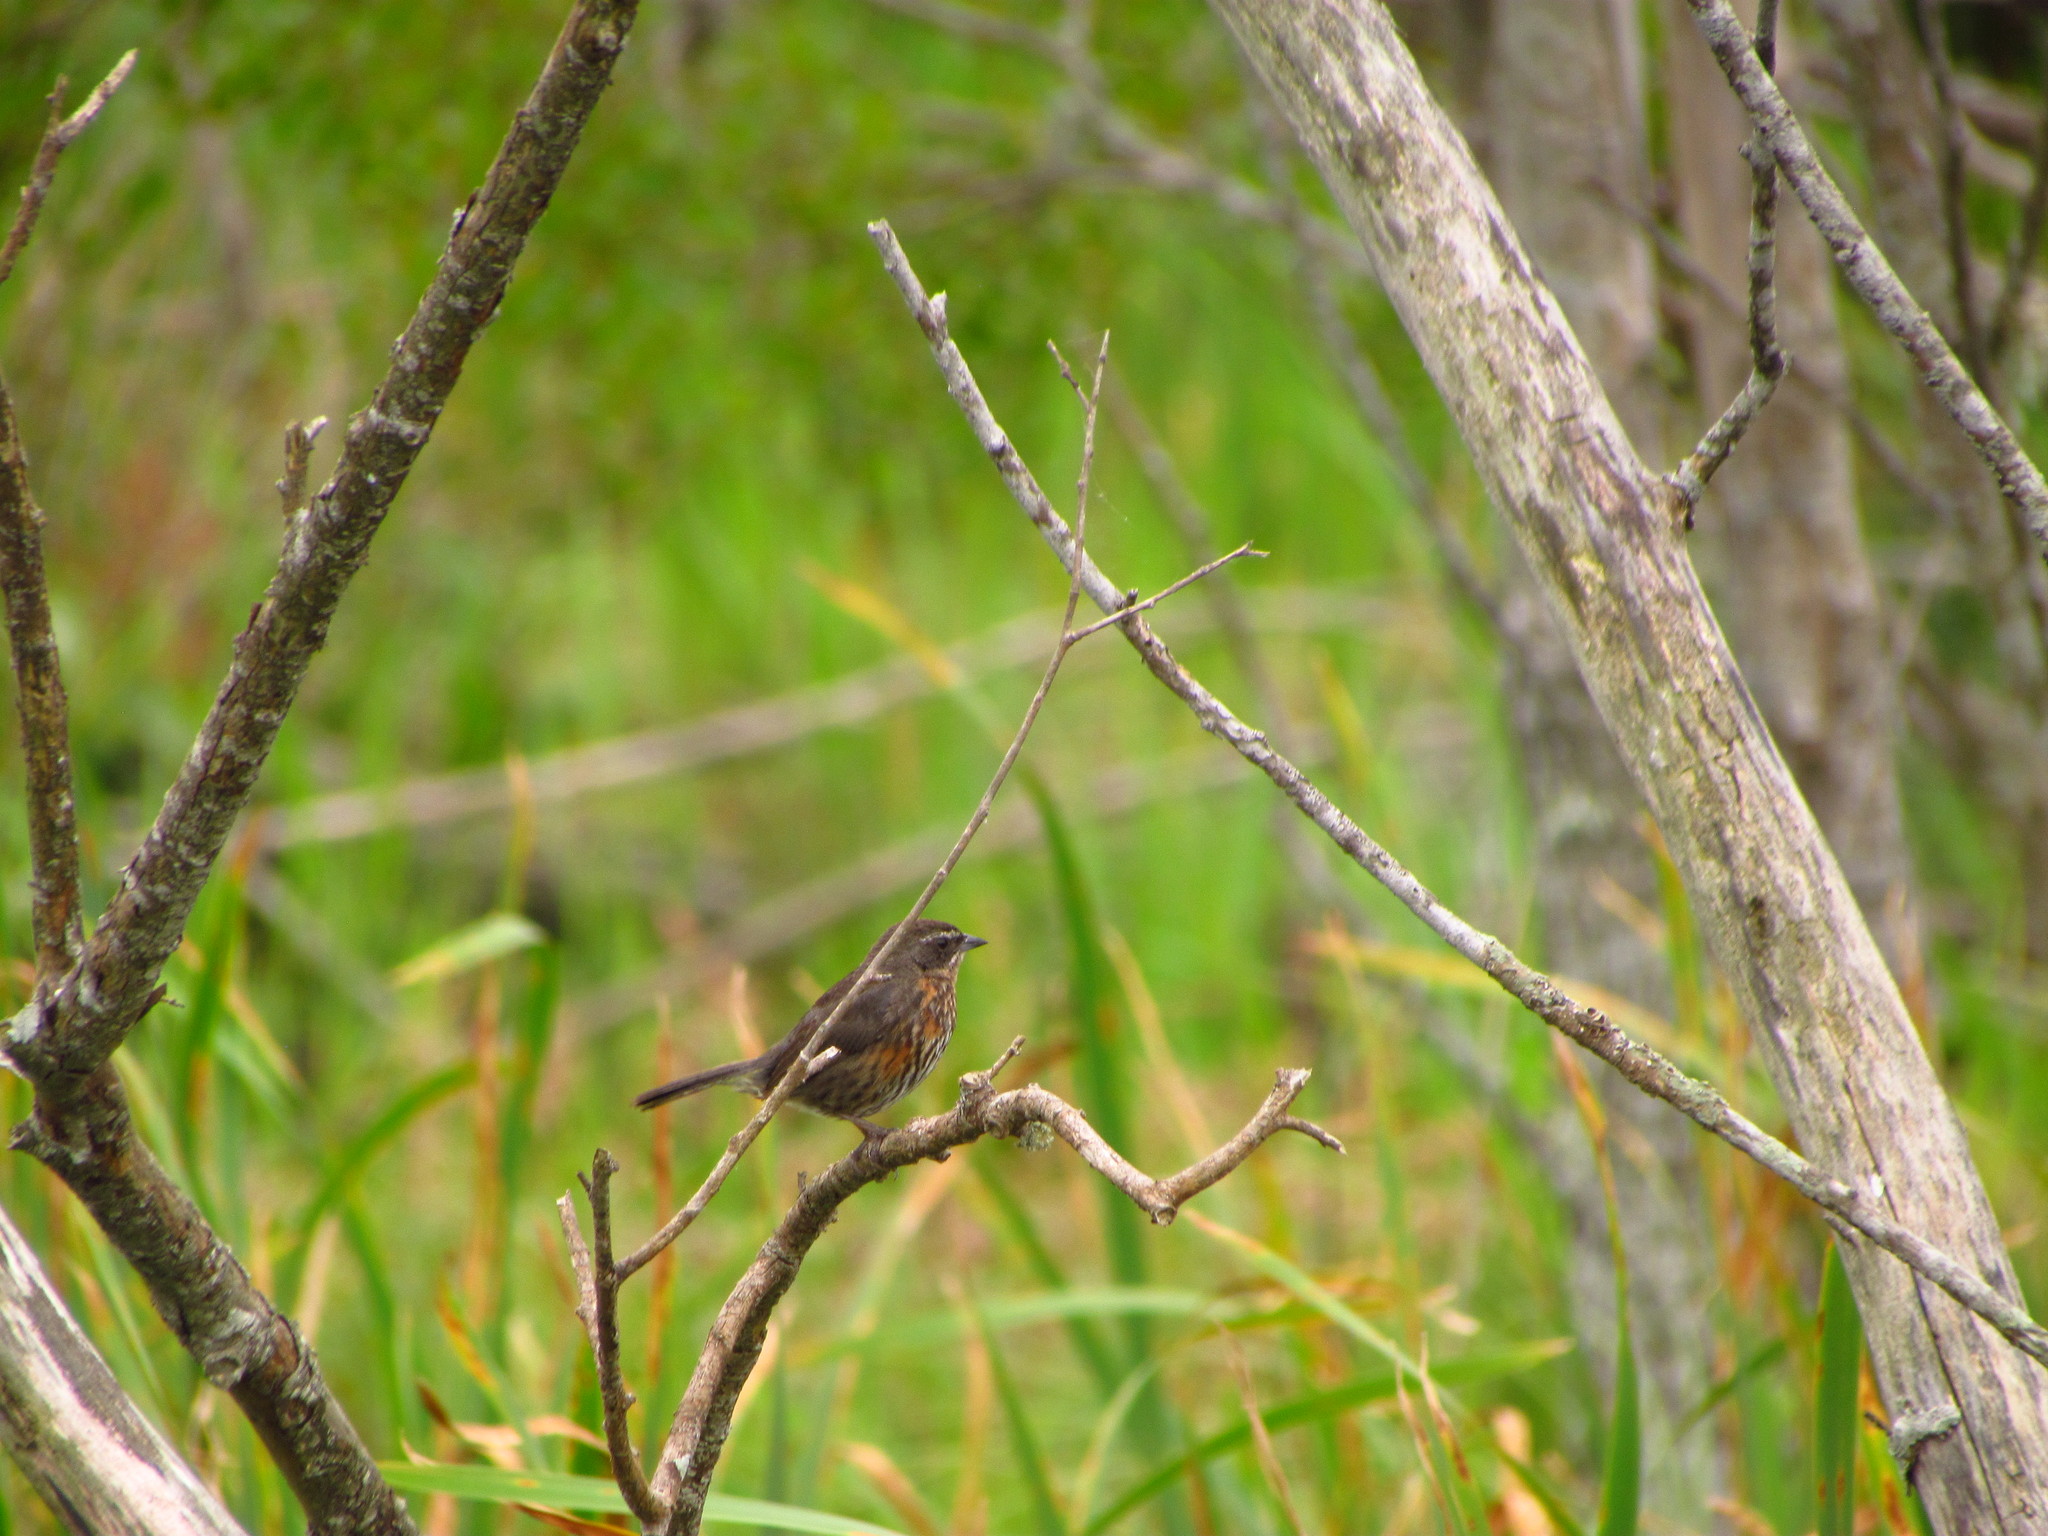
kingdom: Animalia
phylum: Chordata
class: Aves
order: Passeriformes
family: Thraupidae
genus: Poospiza
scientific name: Poospiza nigrorufa
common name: Black-and-rufous warbling finch
